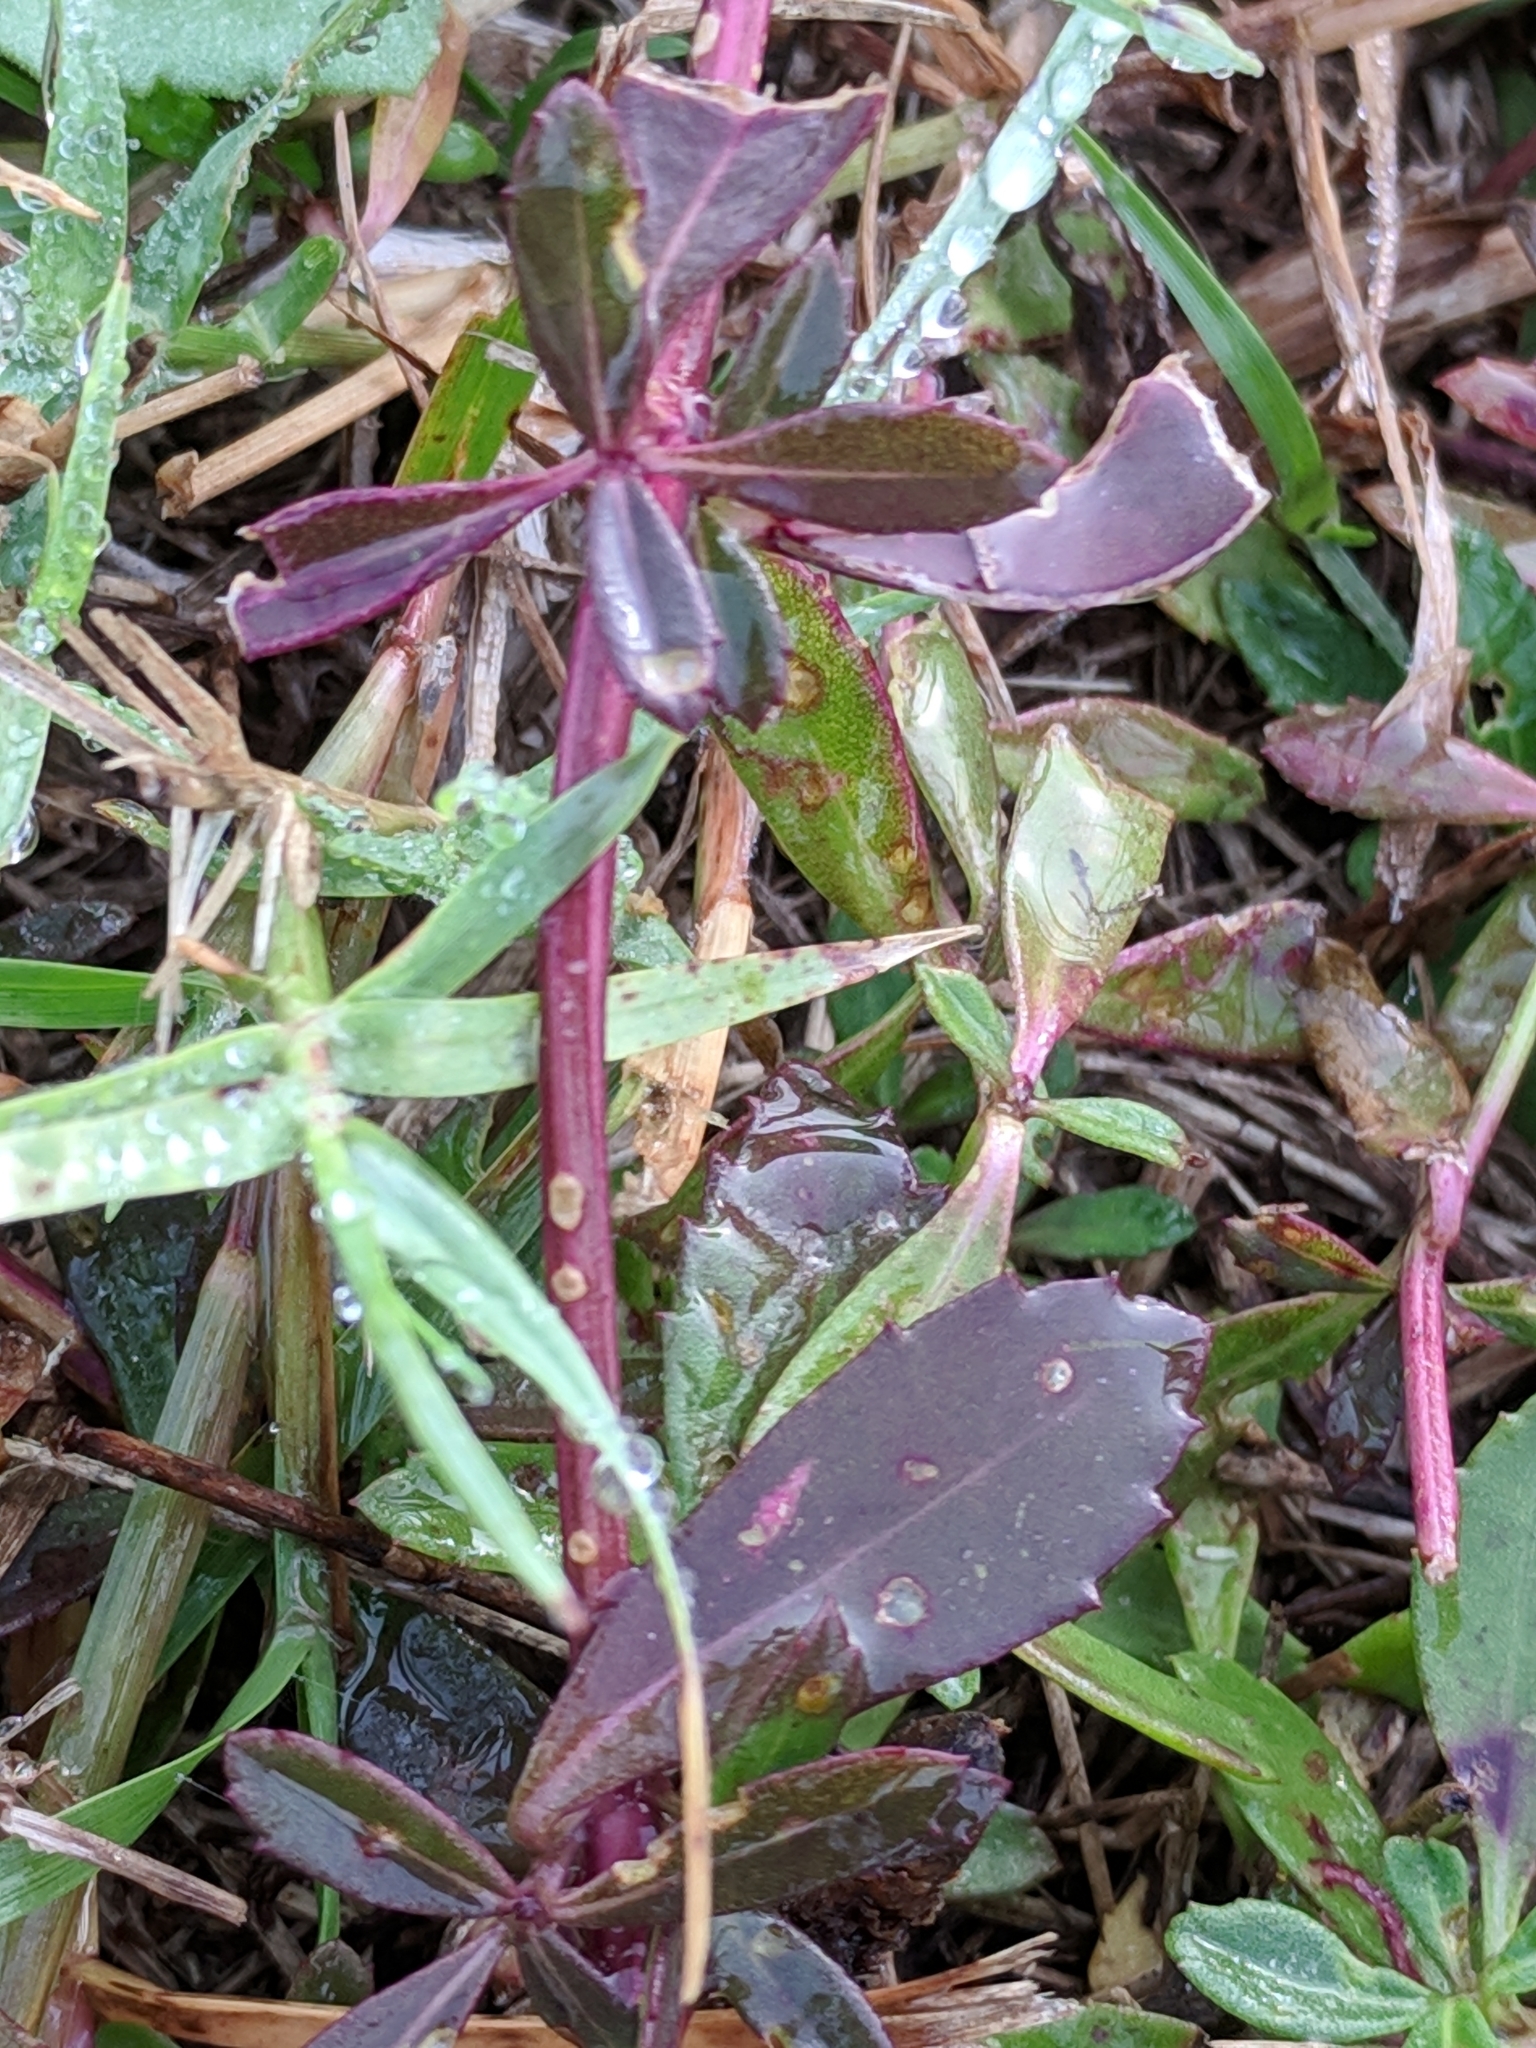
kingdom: Plantae
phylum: Tracheophyta
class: Magnoliopsida
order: Lamiales
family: Verbenaceae
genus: Phyla
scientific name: Phyla nodiflora
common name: Frogfruit
